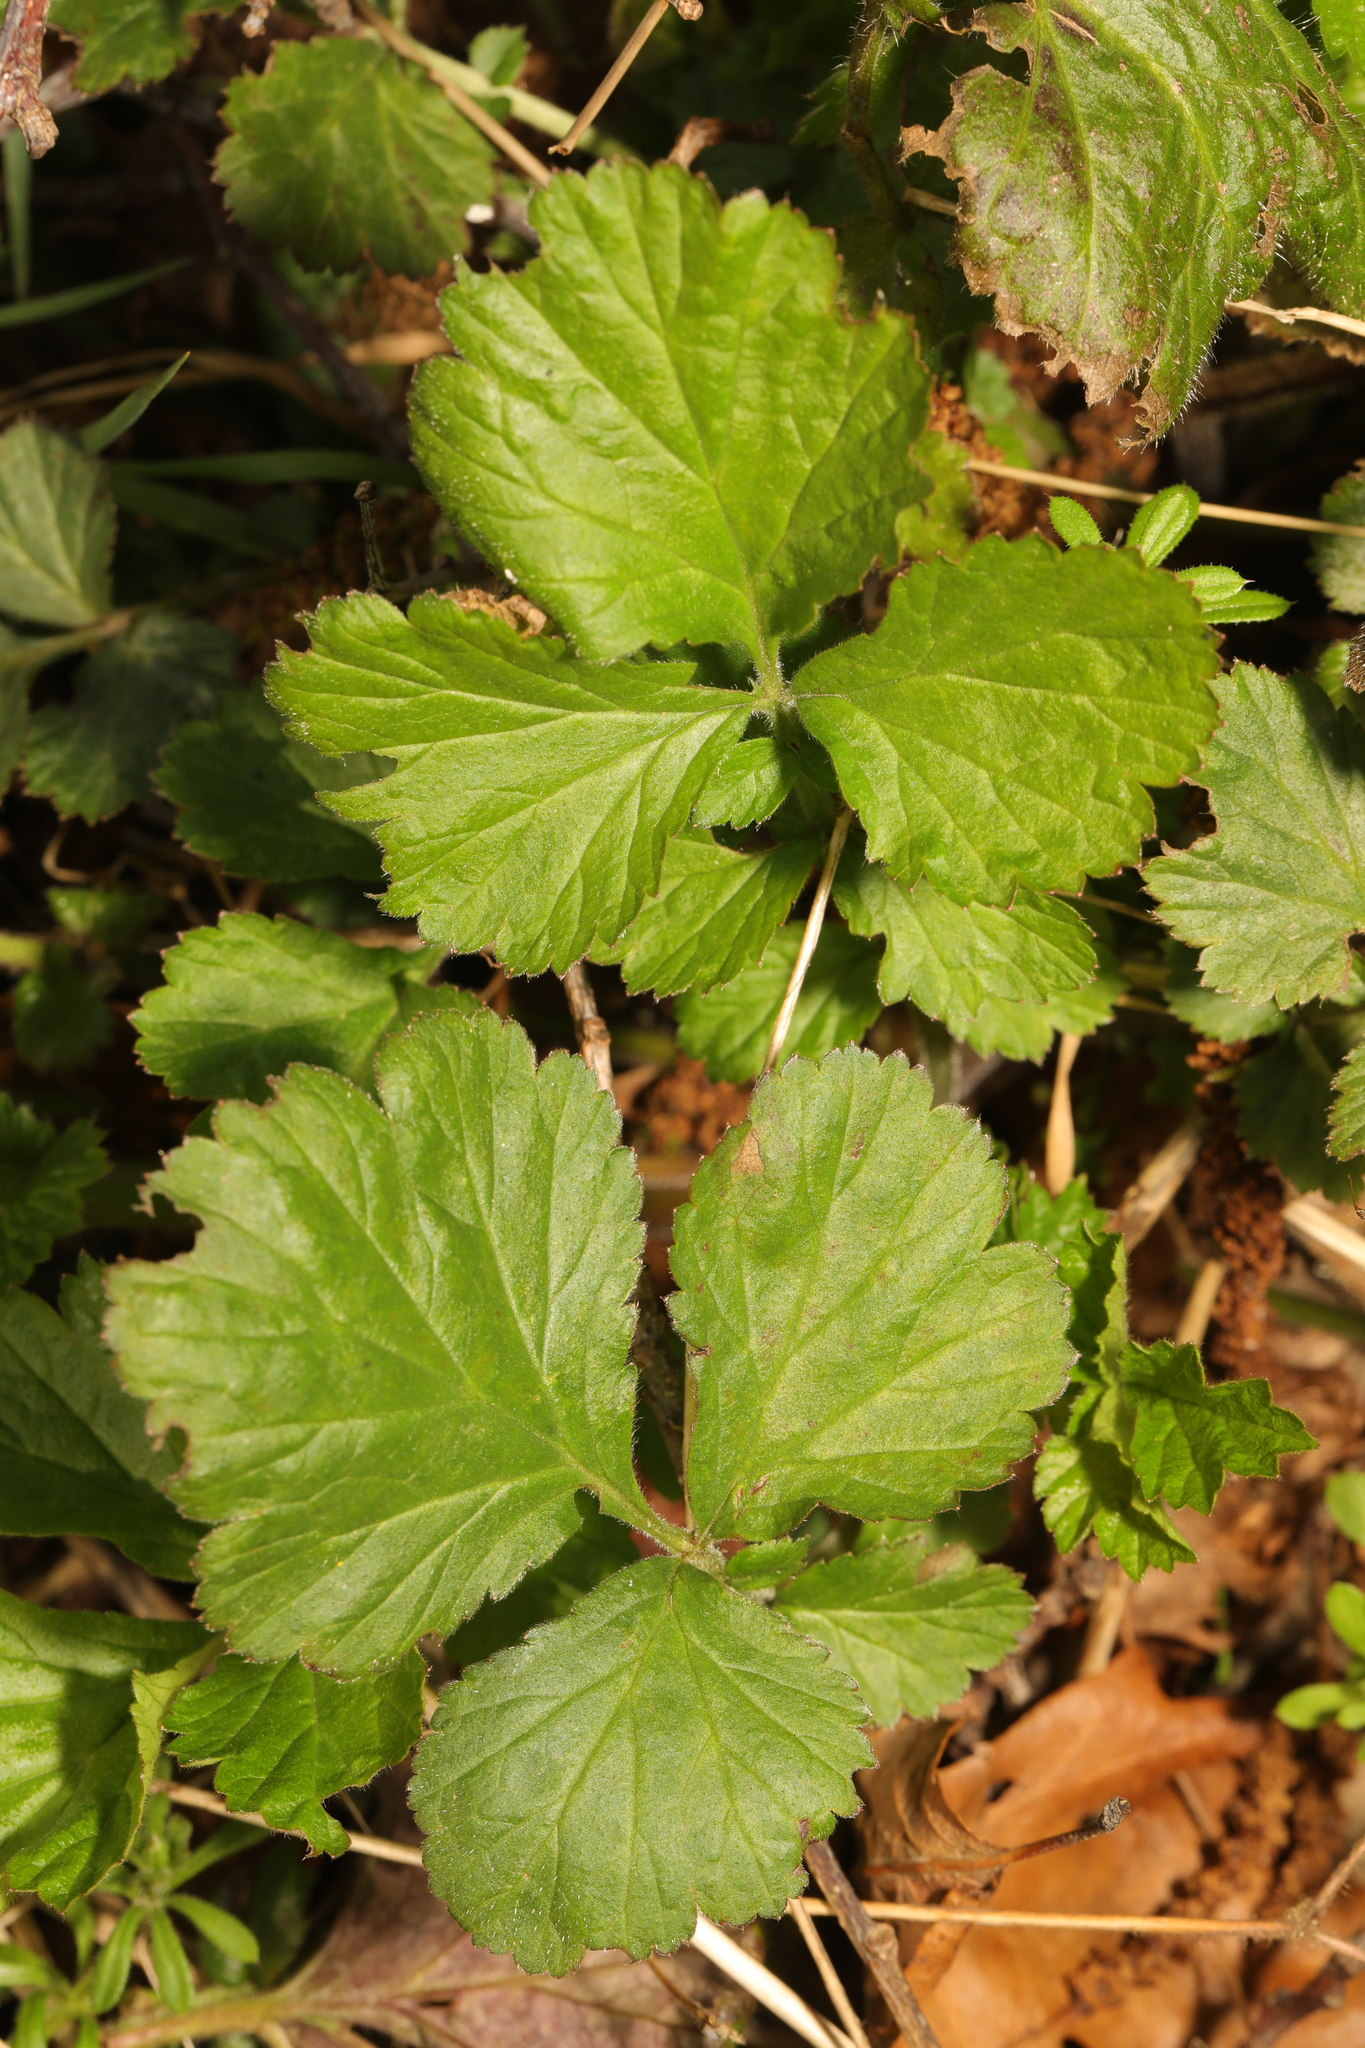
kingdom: Plantae
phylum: Tracheophyta
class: Magnoliopsida
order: Rosales
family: Rosaceae
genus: Geum
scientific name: Geum urbanum
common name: Wood avens
